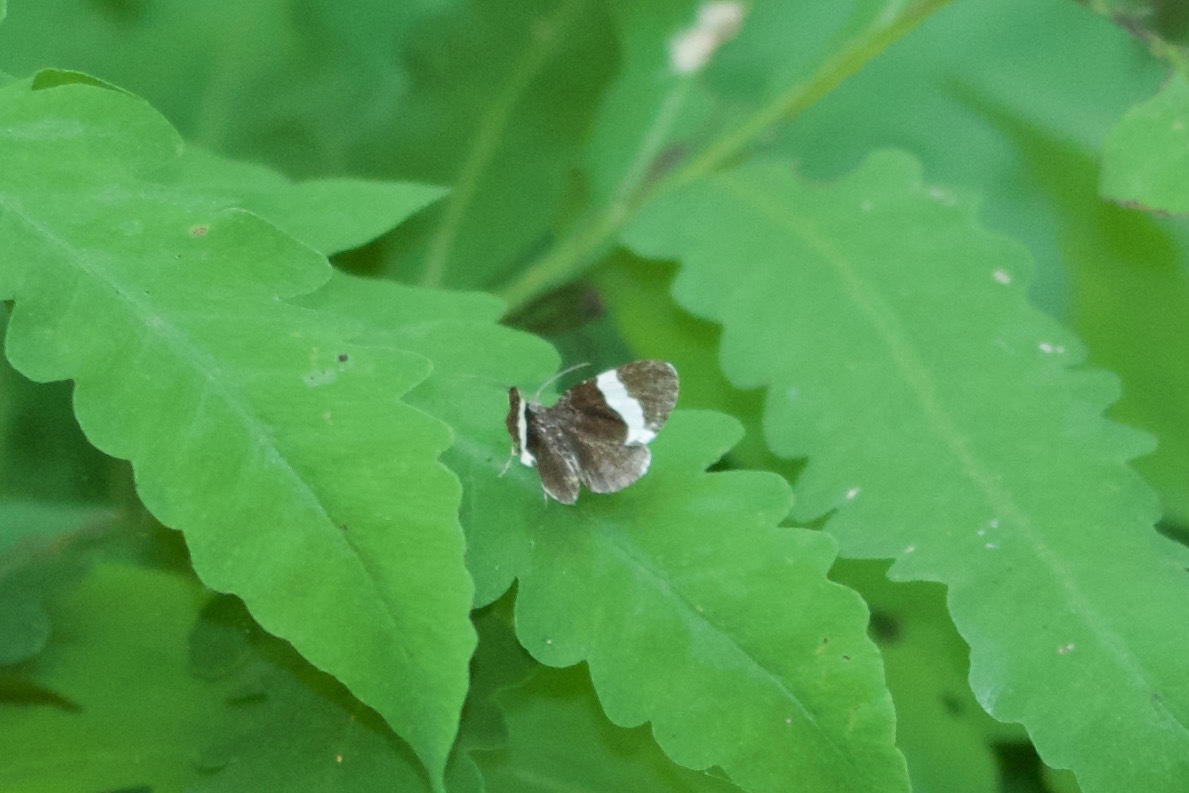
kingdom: Animalia
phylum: Arthropoda
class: Insecta
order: Lepidoptera
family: Geometridae
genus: Trichodezia
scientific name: Trichodezia albovittata
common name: White striped black
